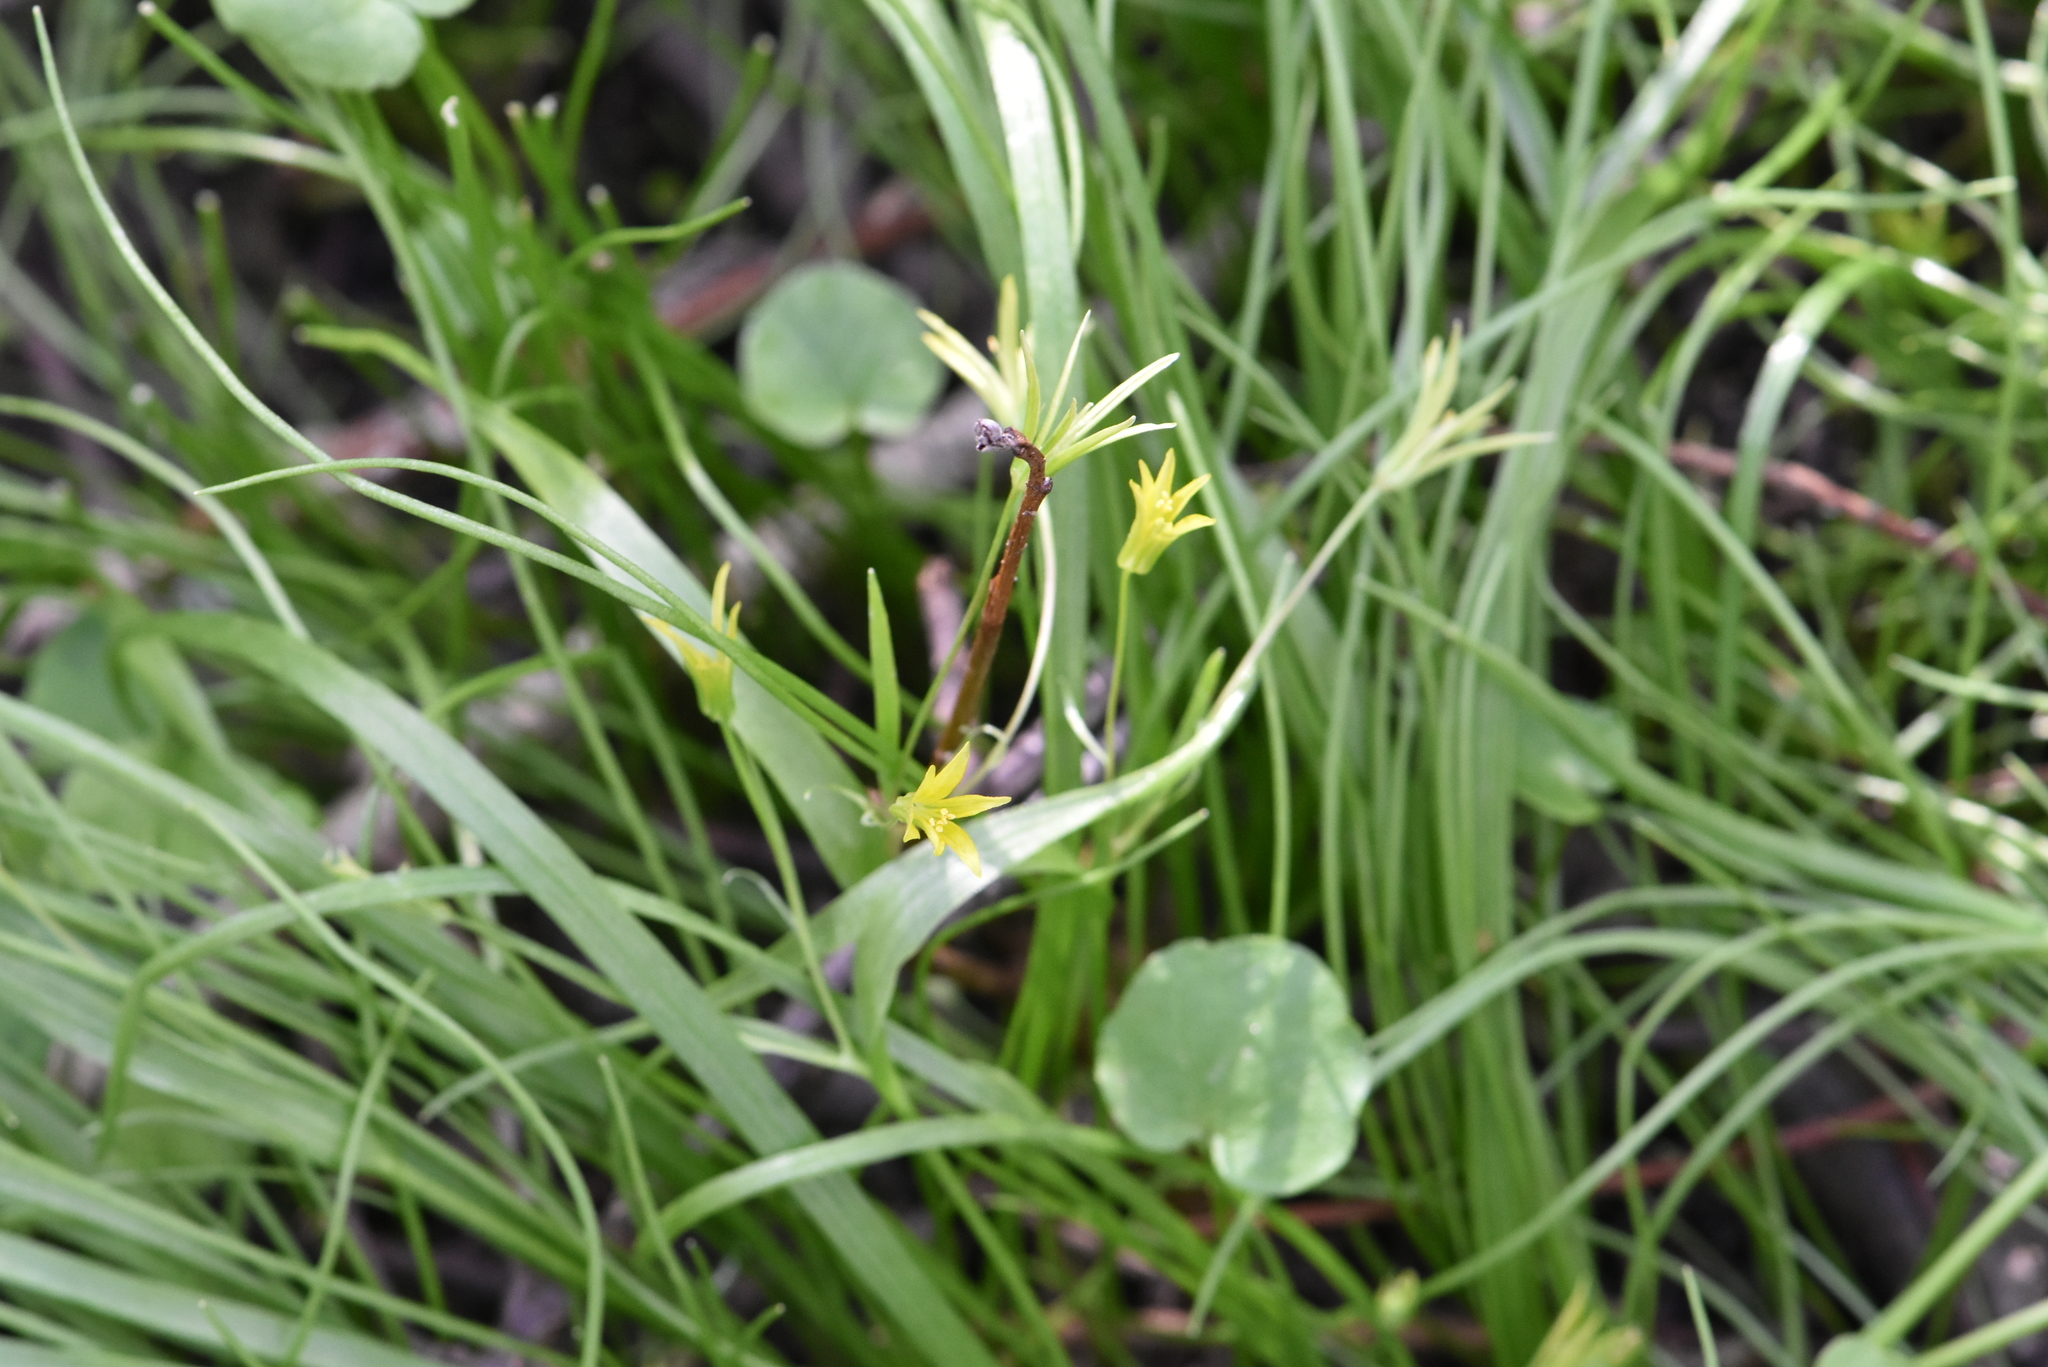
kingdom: Plantae
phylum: Tracheophyta
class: Liliopsida
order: Liliales
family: Liliaceae
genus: Gagea
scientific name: Gagea minima
